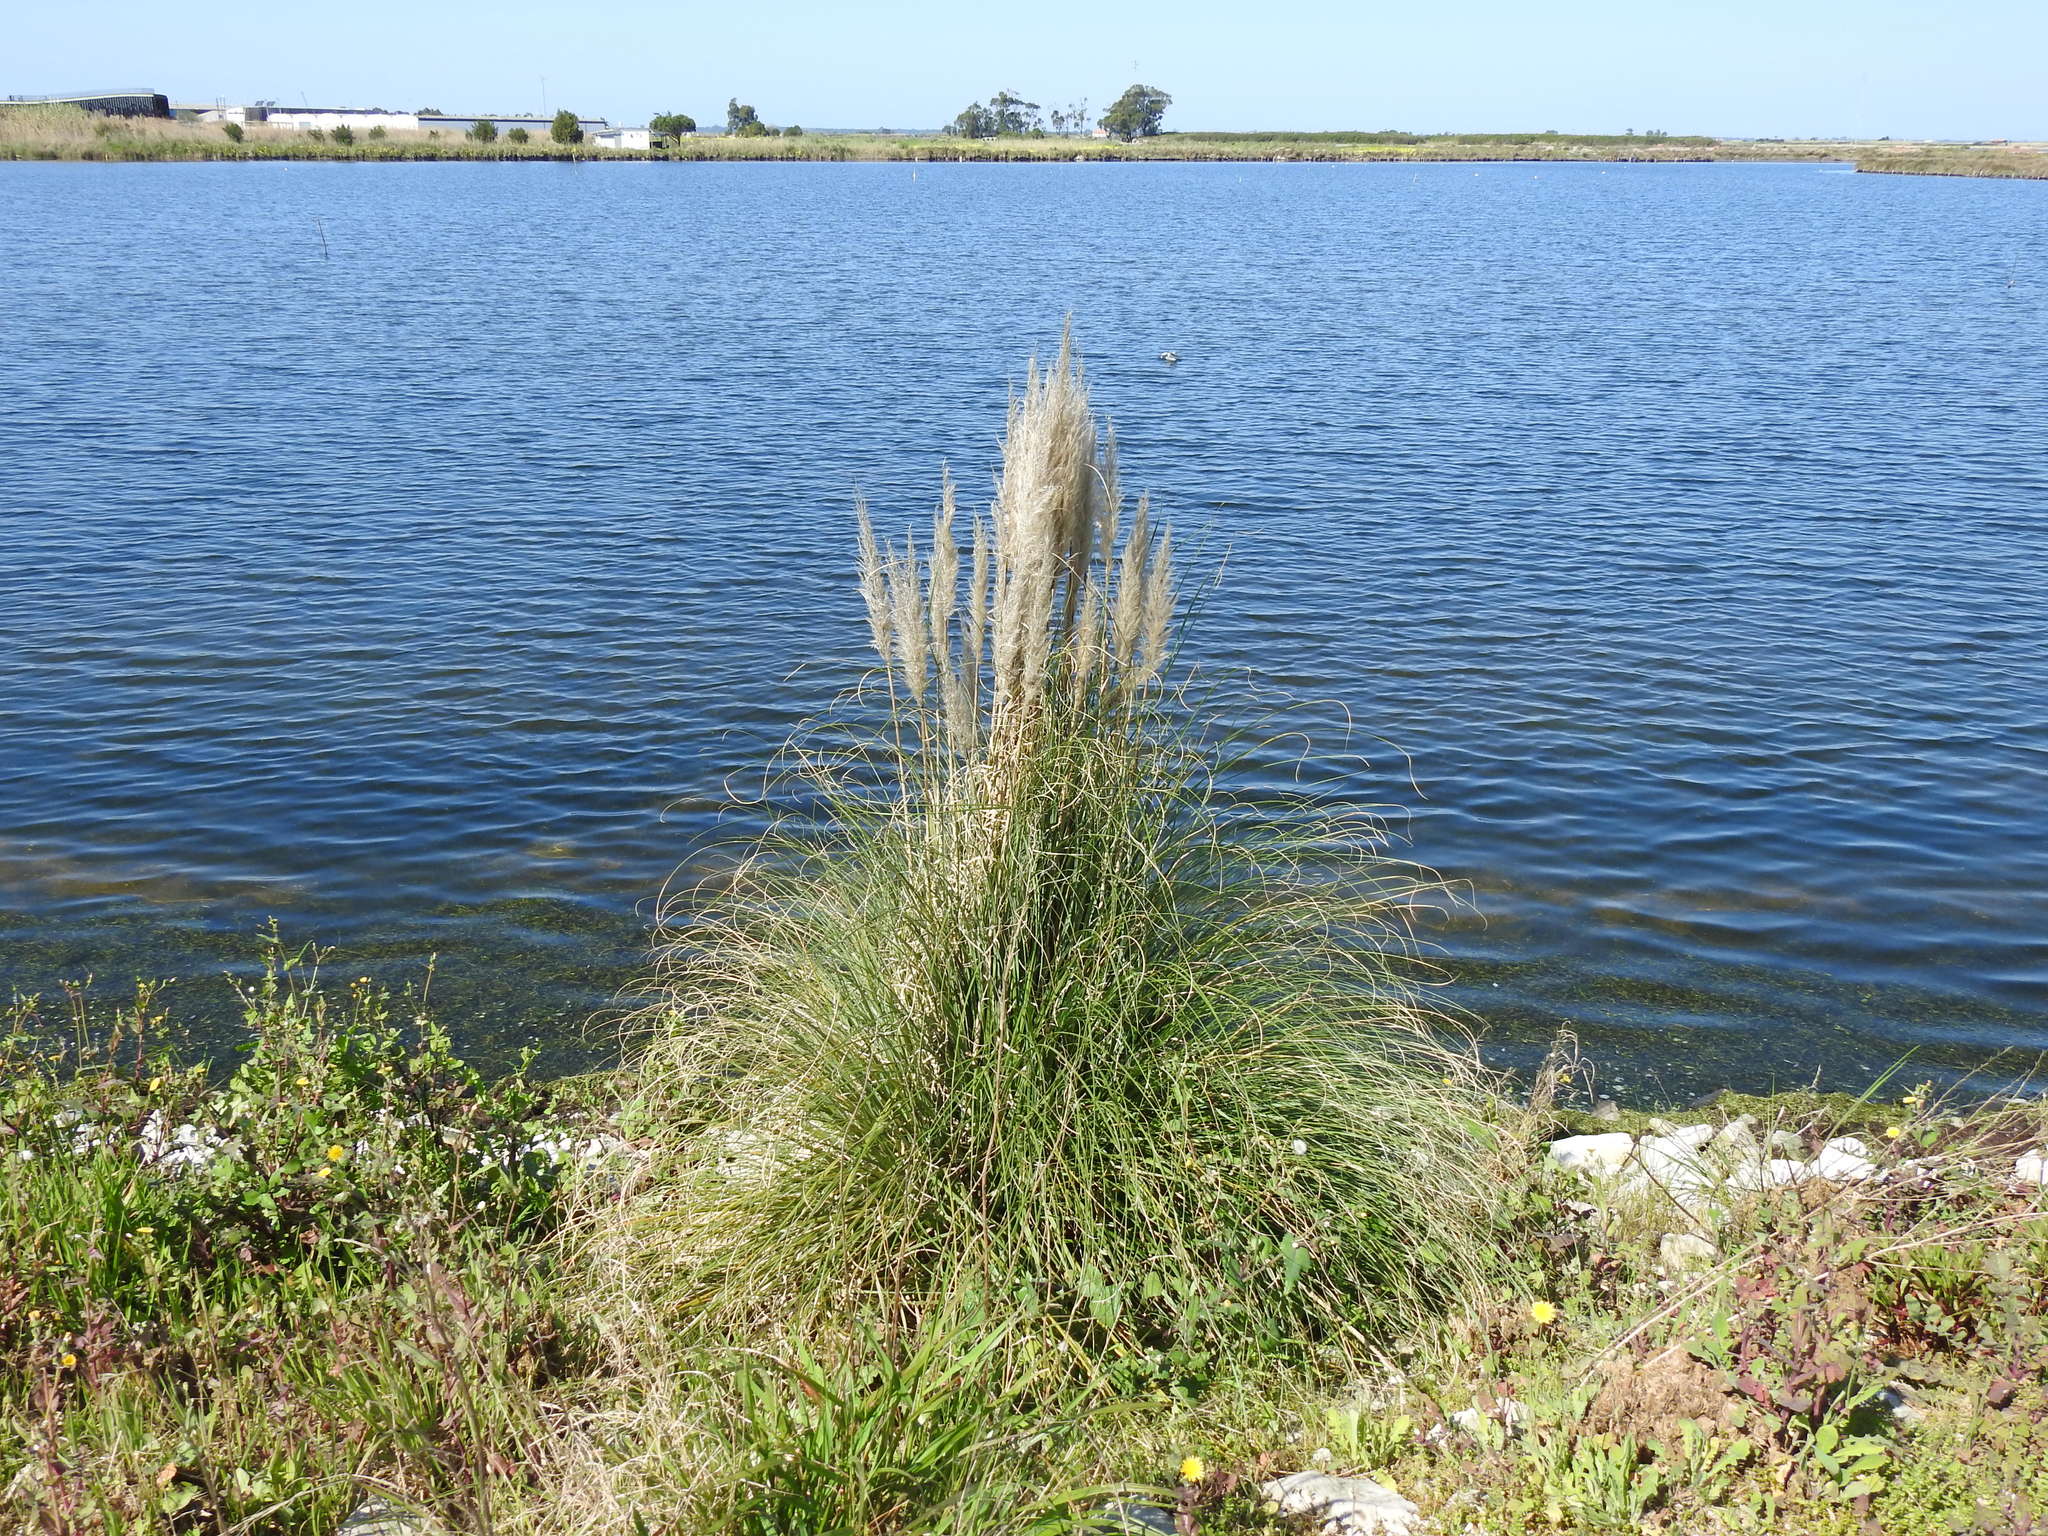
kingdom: Plantae
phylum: Tracheophyta
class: Liliopsida
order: Poales
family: Poaceae
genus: Cortaderia
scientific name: Cortaderia selloana
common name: Uruguayan pampas grass
